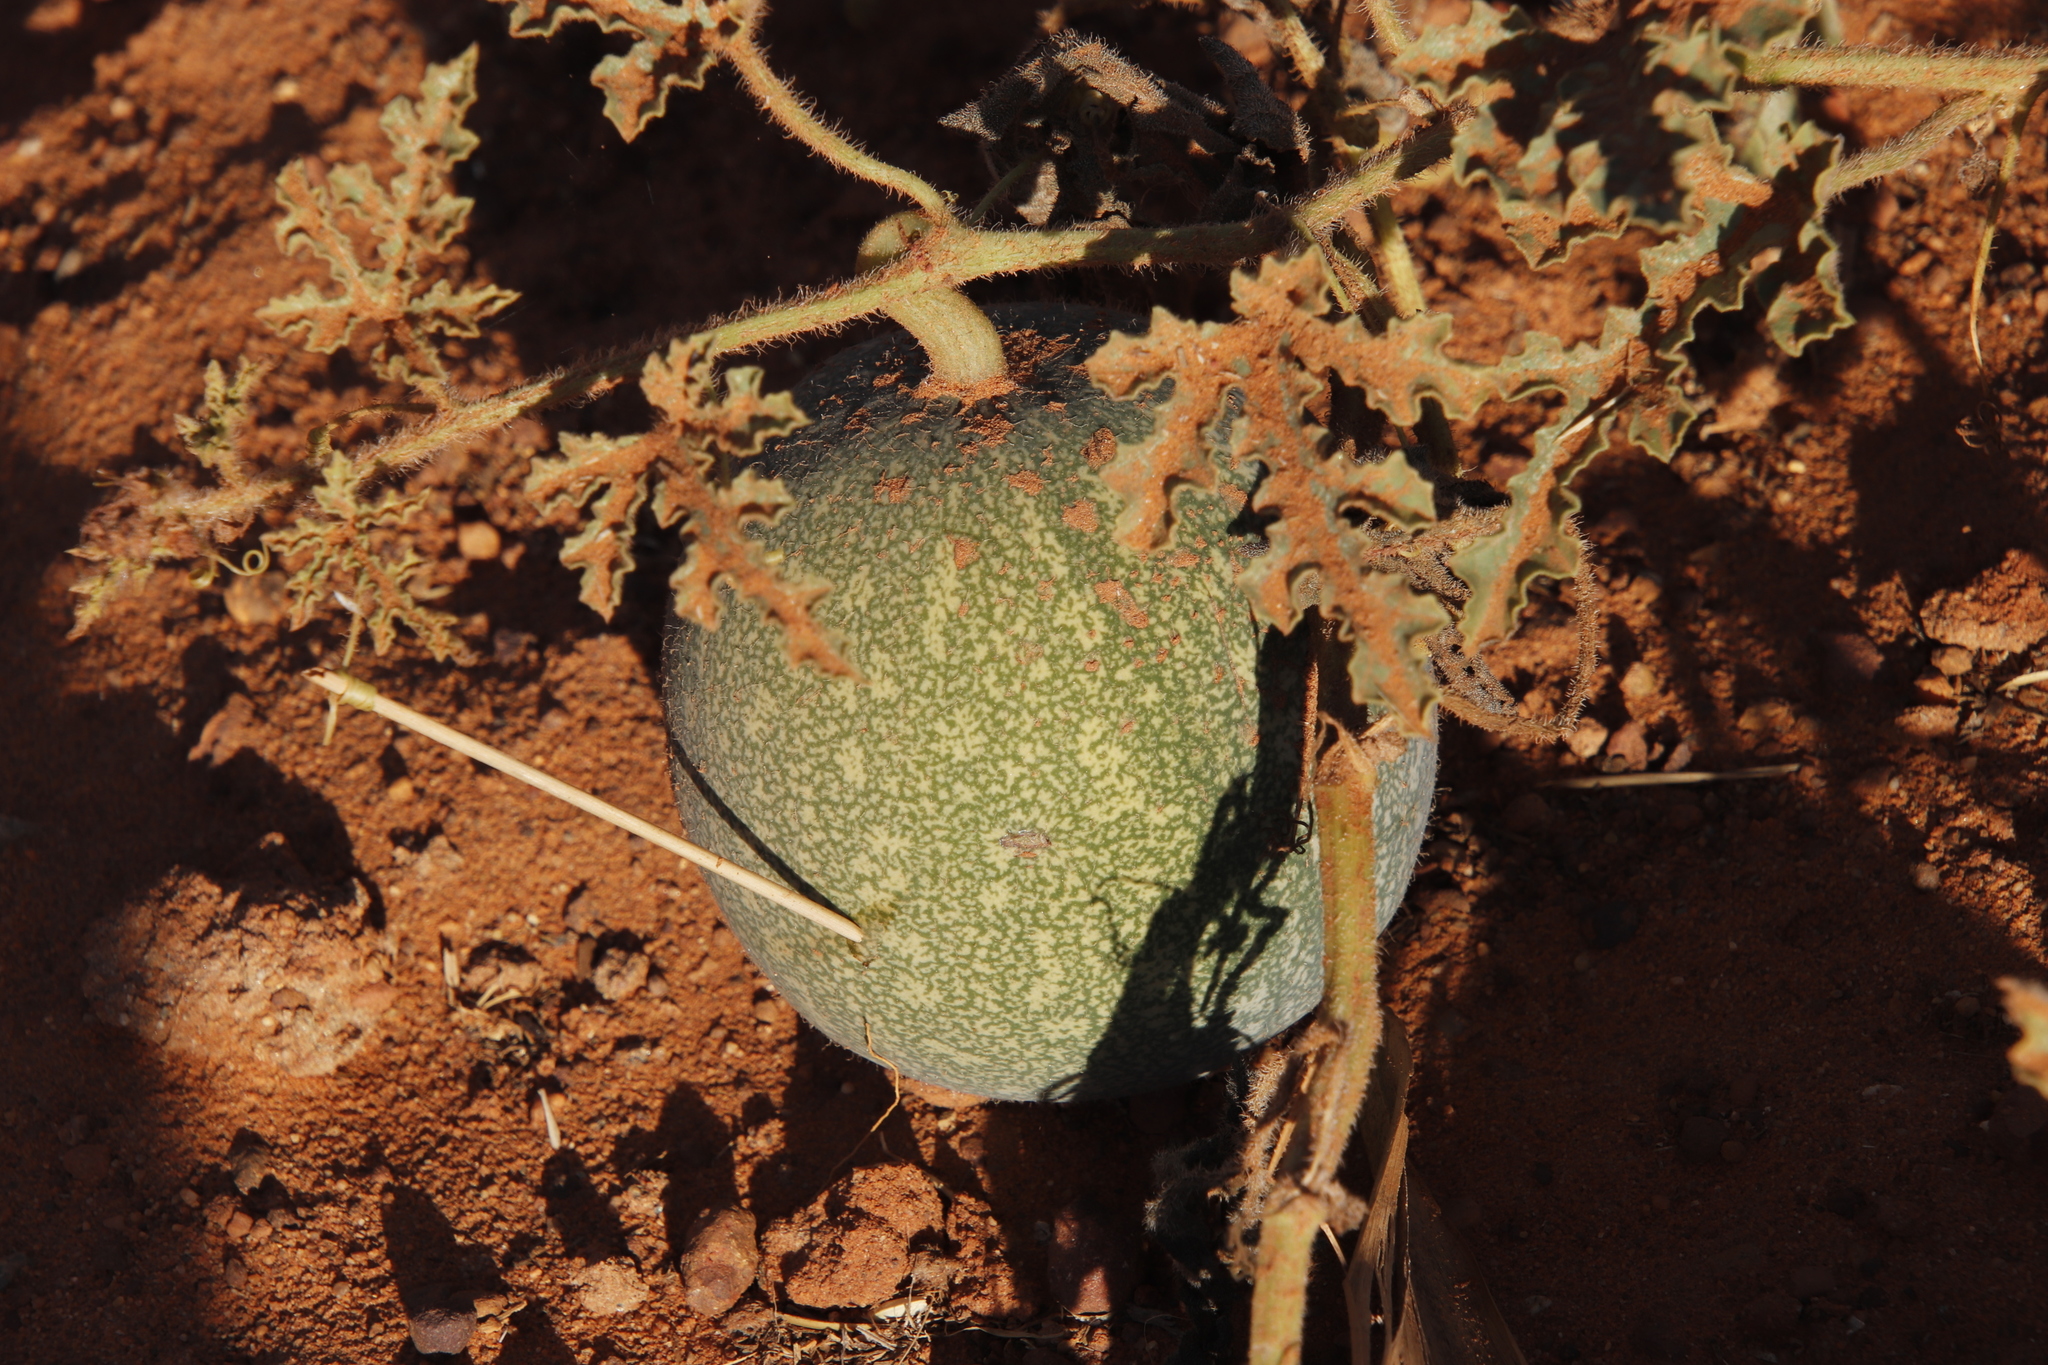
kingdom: Plantae
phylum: Tracheophyta
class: Magnoliopsida
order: Cucurbitales
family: Cucurbitaceae
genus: Citrullus
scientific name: Citrullus amarus
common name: Fodder-melon
